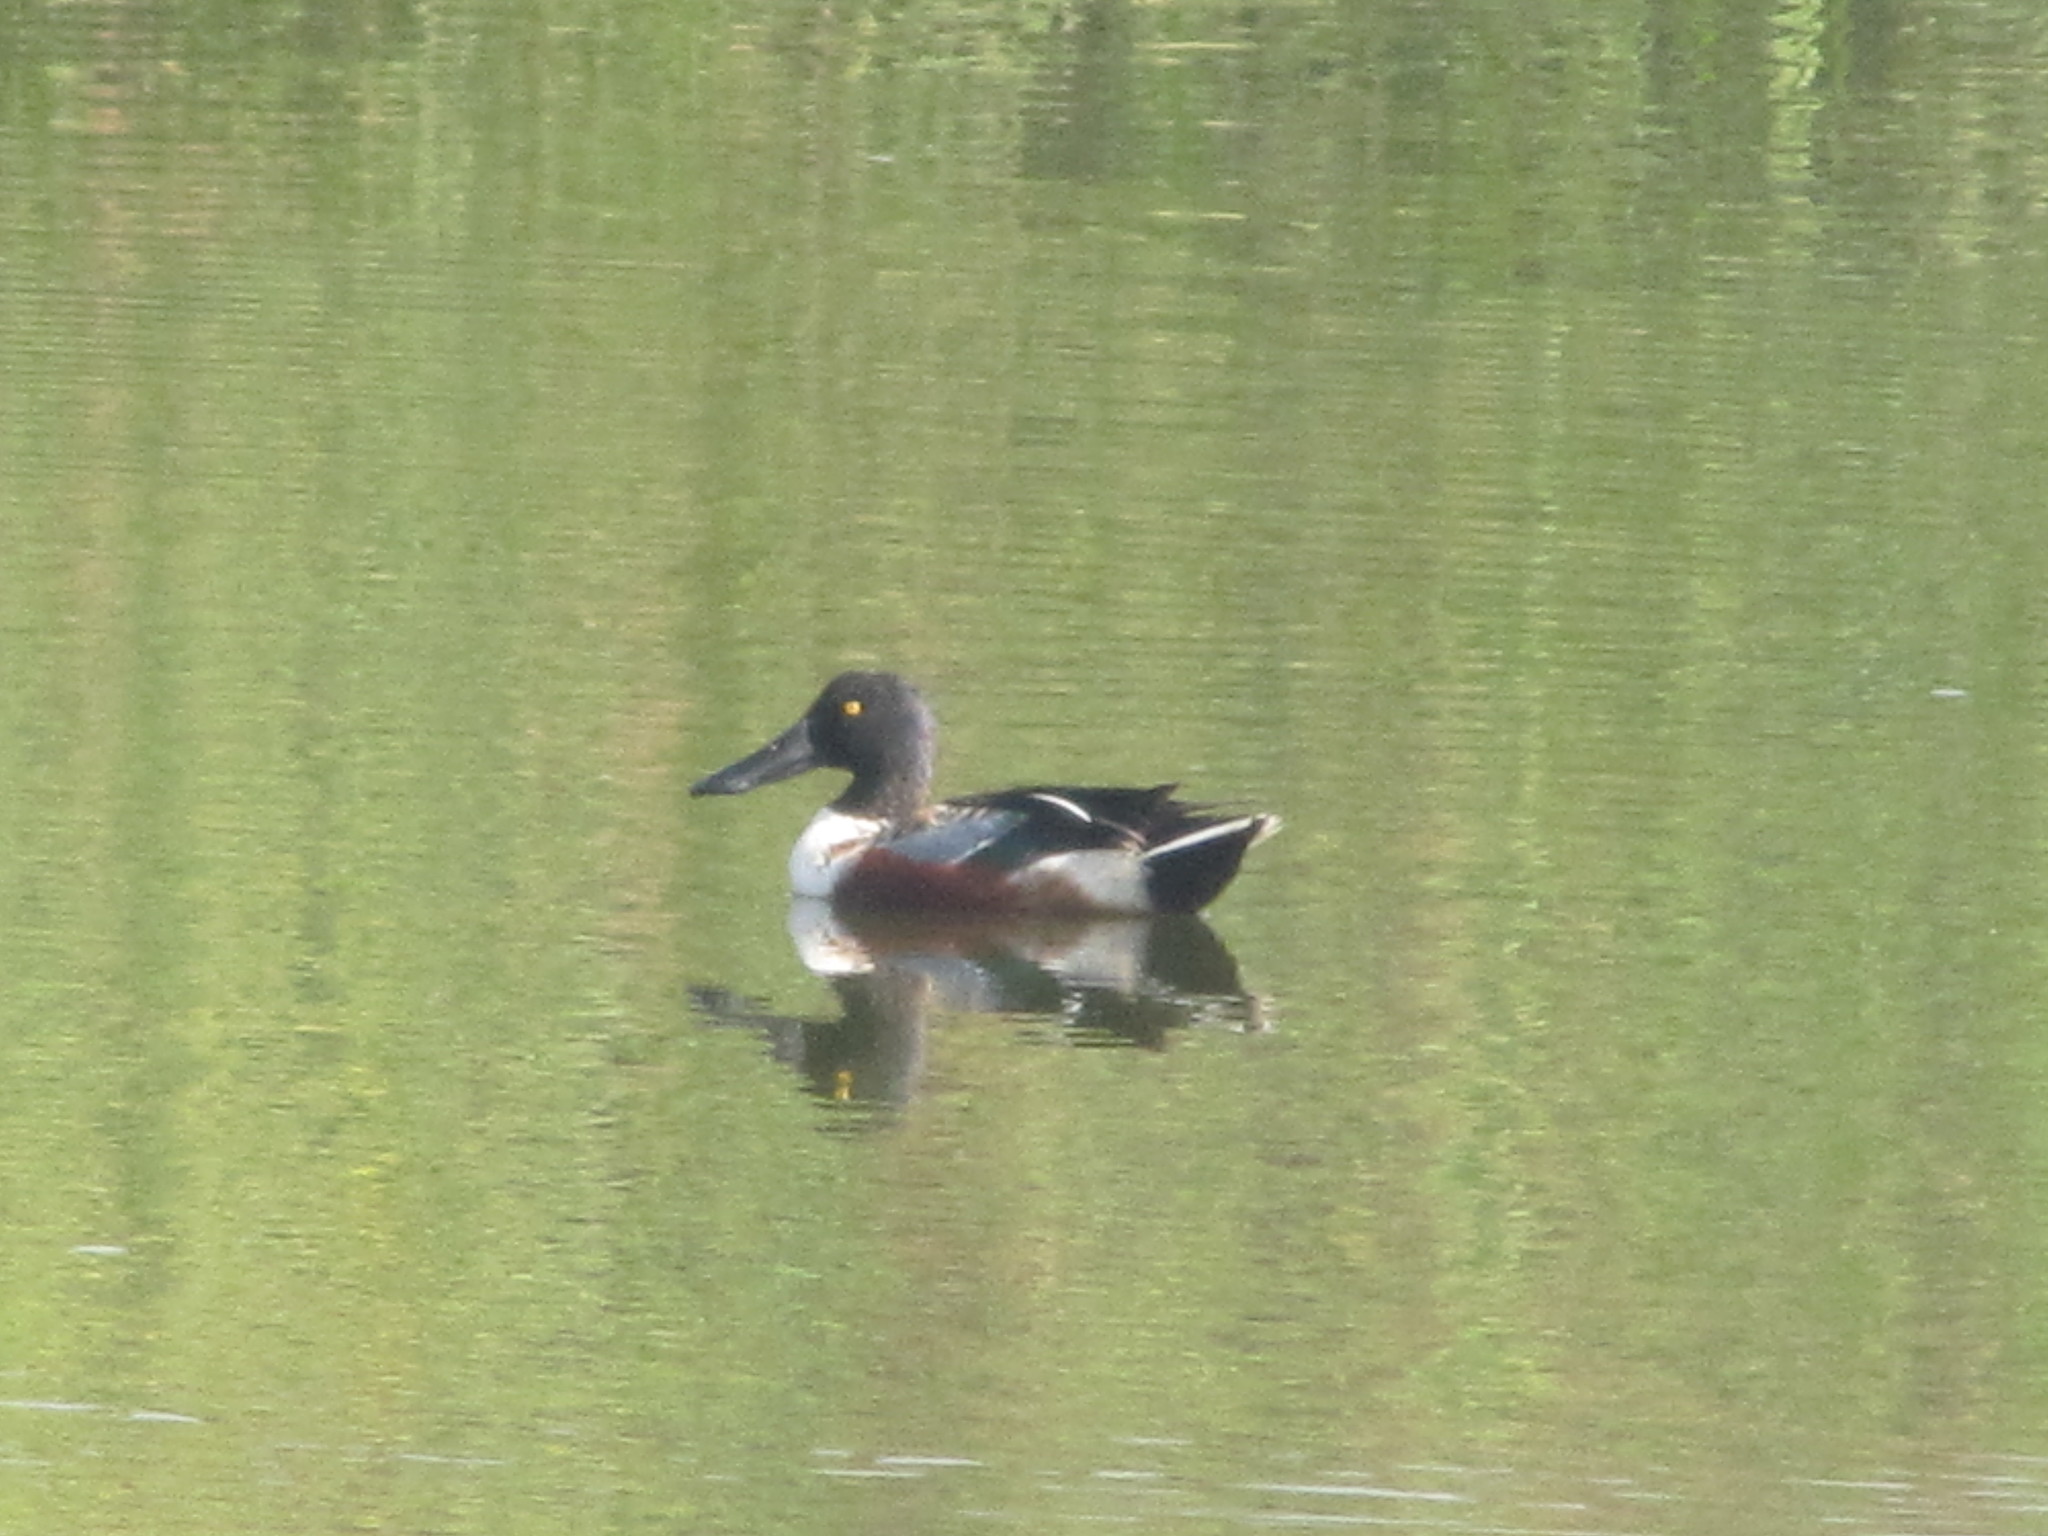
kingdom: Animalia
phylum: Chordata
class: Aves
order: Anseriformes
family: Anatidae
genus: Spatula
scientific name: Spatula clypeata
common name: Northern shoveler
